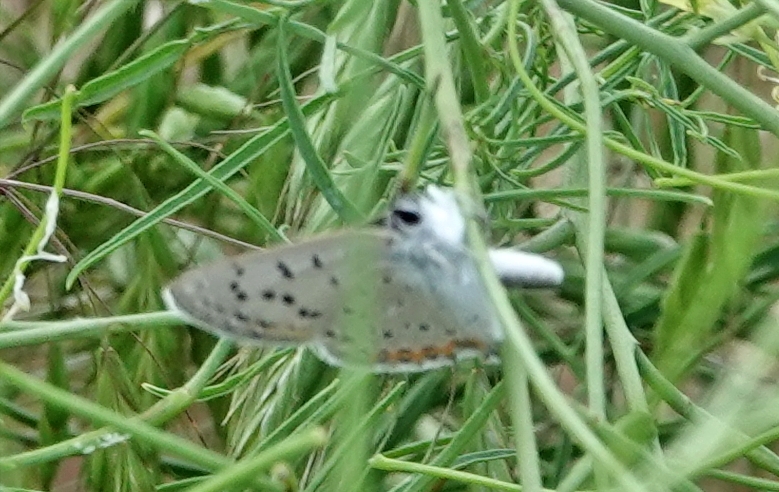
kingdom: Animalia
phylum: Arthropoda
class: Insecta
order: Lepidoptera
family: Lycaenidae
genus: Tharsalea
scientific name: Tharsalea dione
